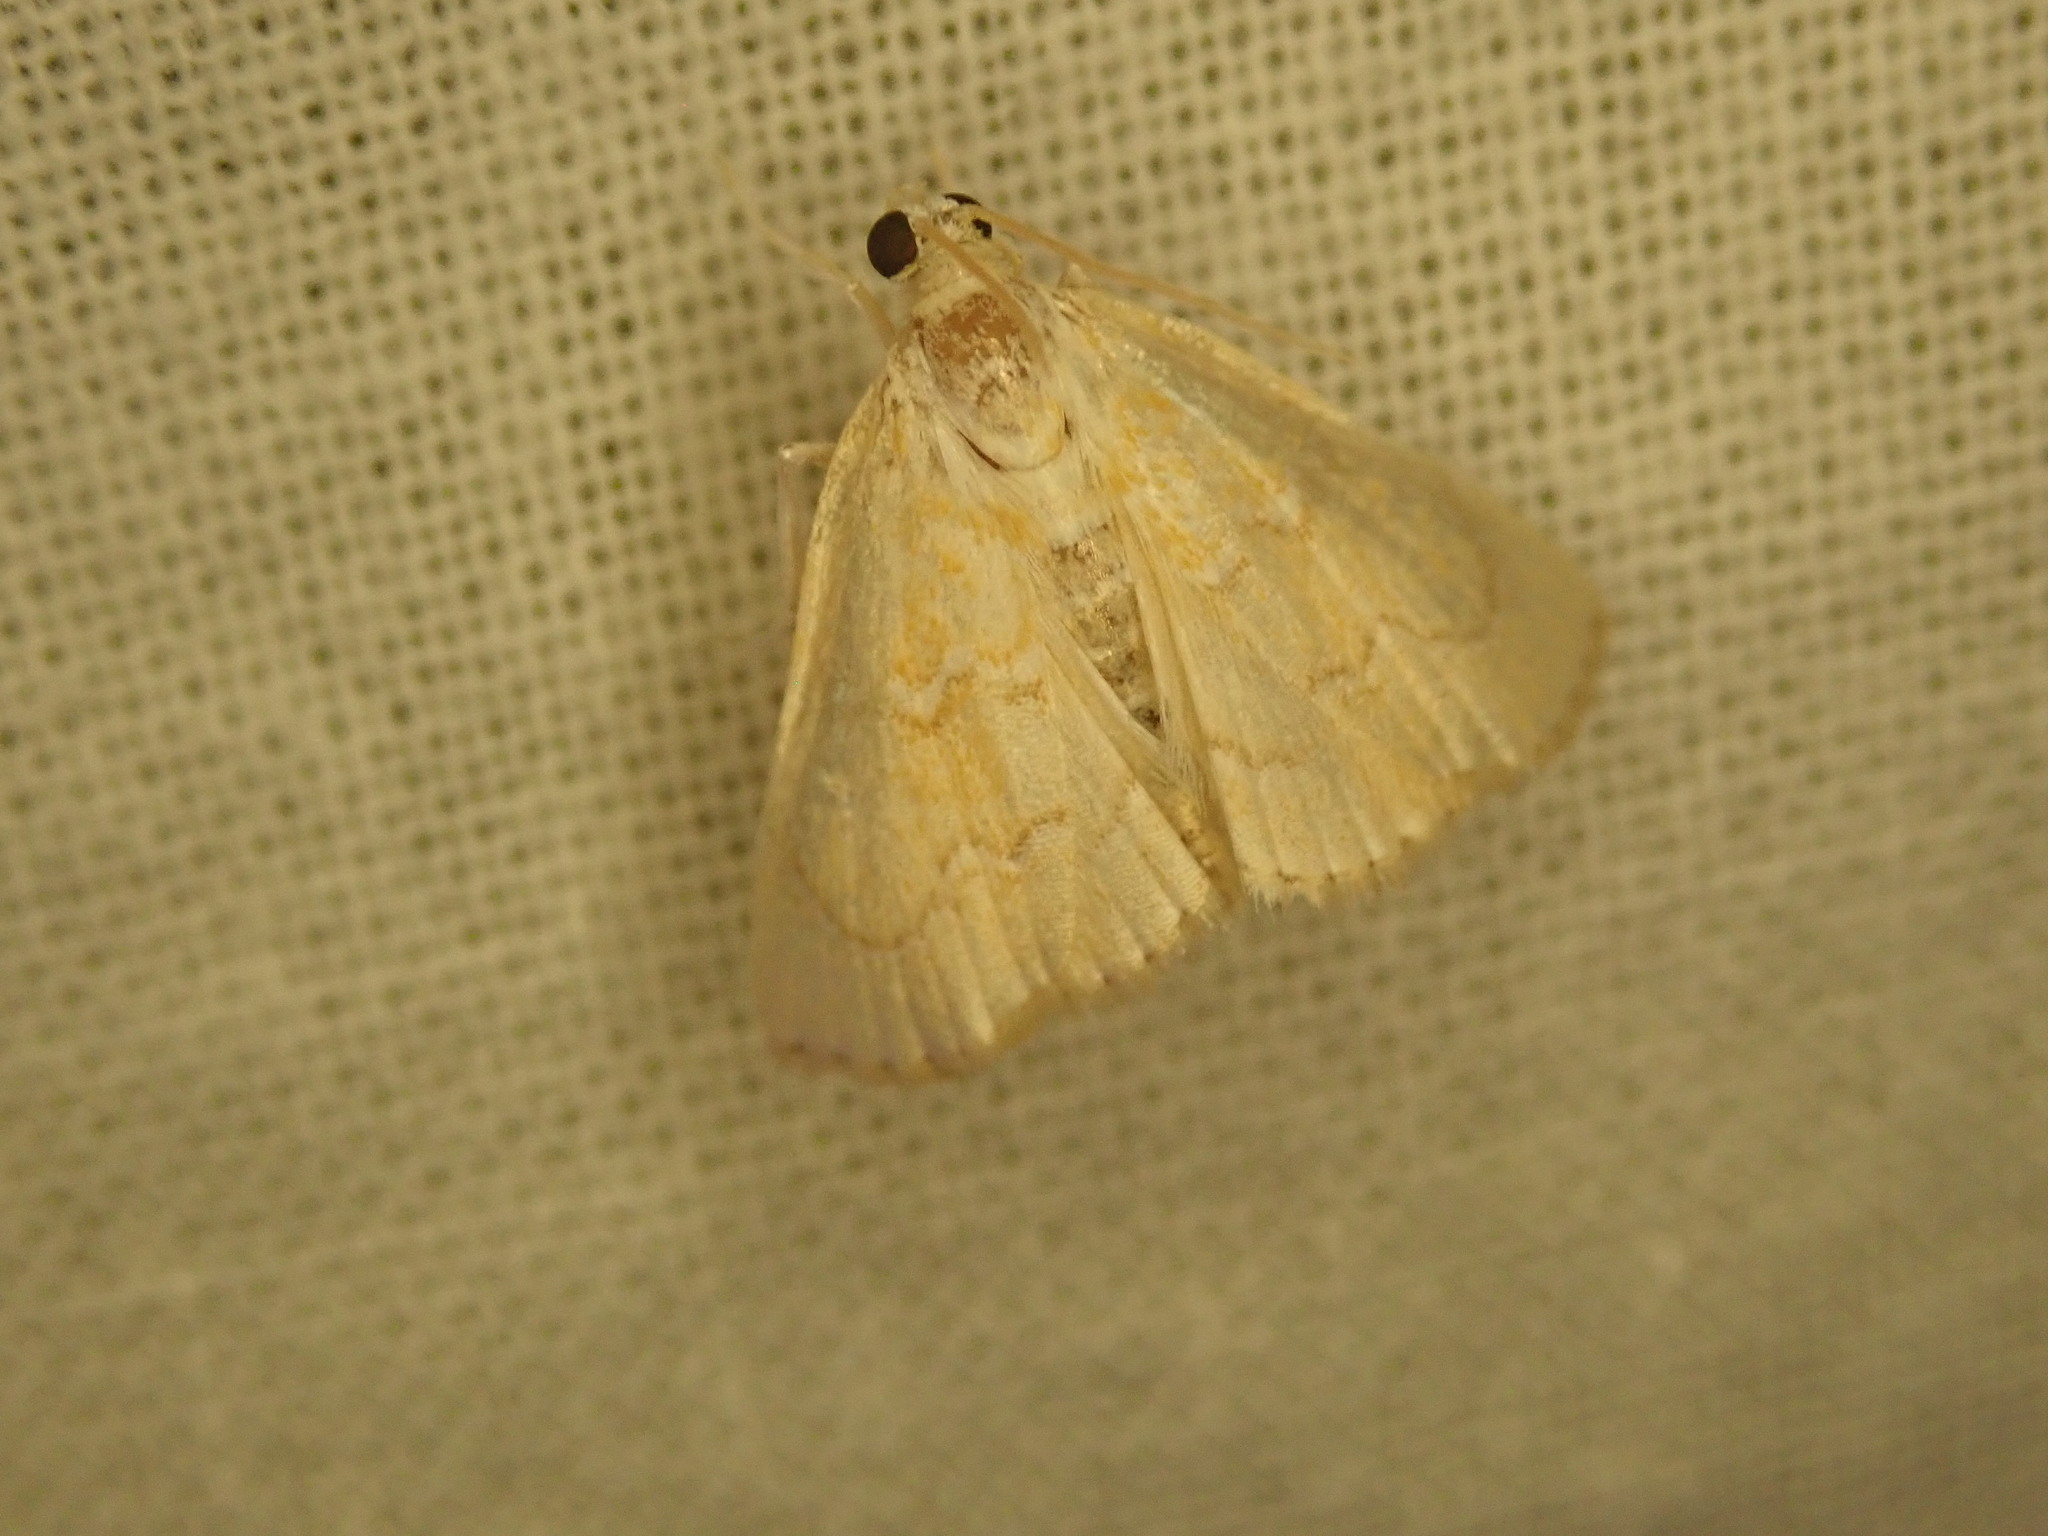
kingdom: Animalia
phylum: Arthropoda
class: Insecta
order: Lepidoptera
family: Crambidae
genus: Glaphyria
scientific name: Glaphyria sesquistrialis
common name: White-roped glaphyria
